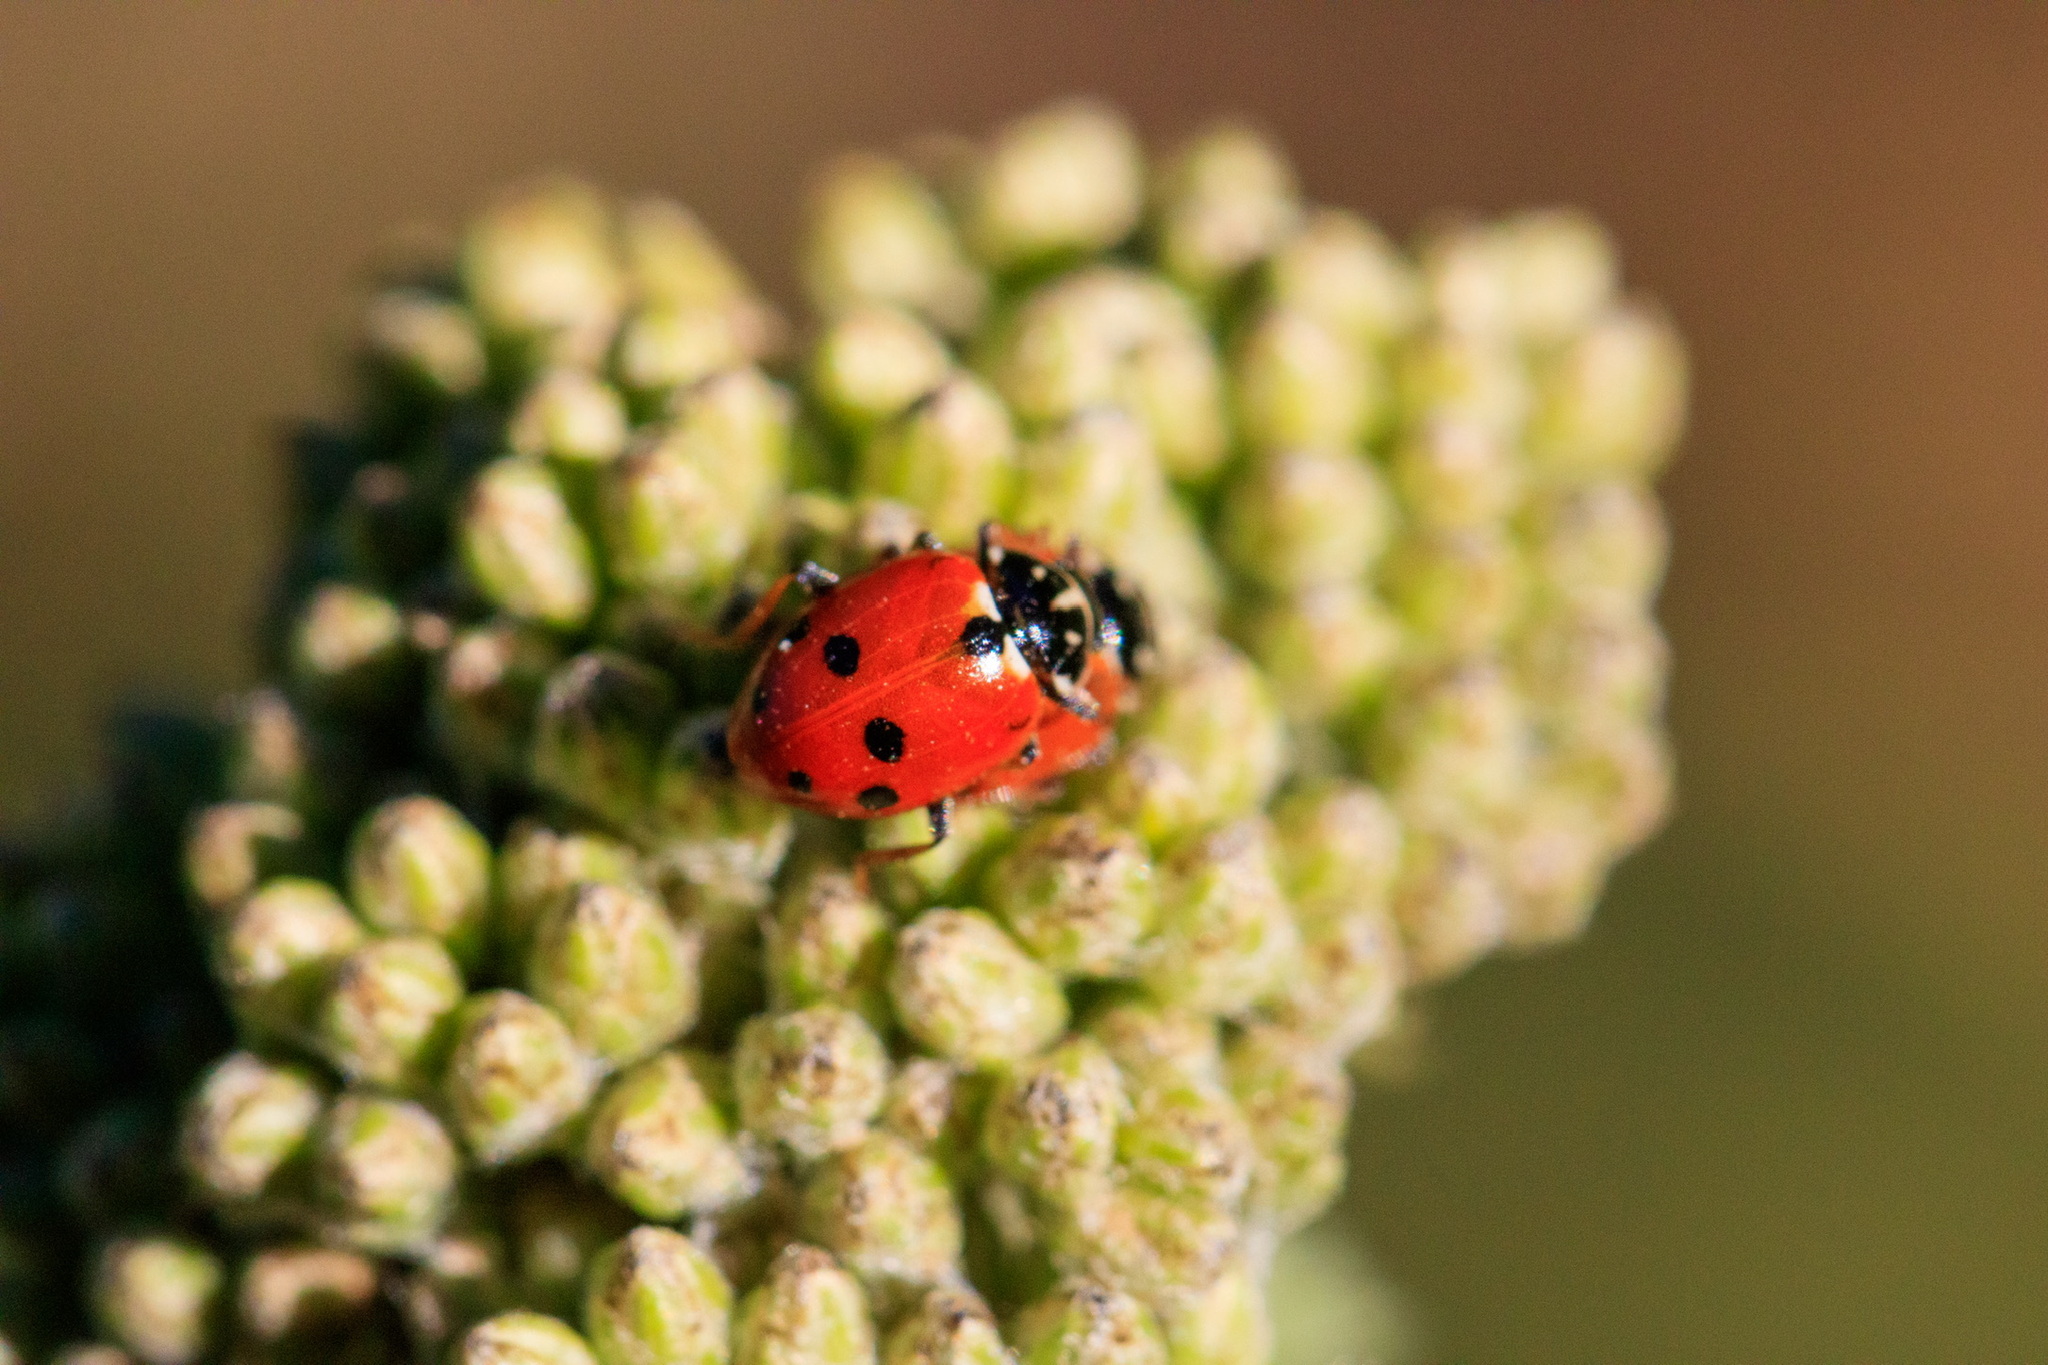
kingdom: Animalia
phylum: Arthropoda
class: Insecta
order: Coleoptera
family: Coccinellidae
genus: Hippodamia
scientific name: Hippodamia variegata
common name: Ladybird beetle
